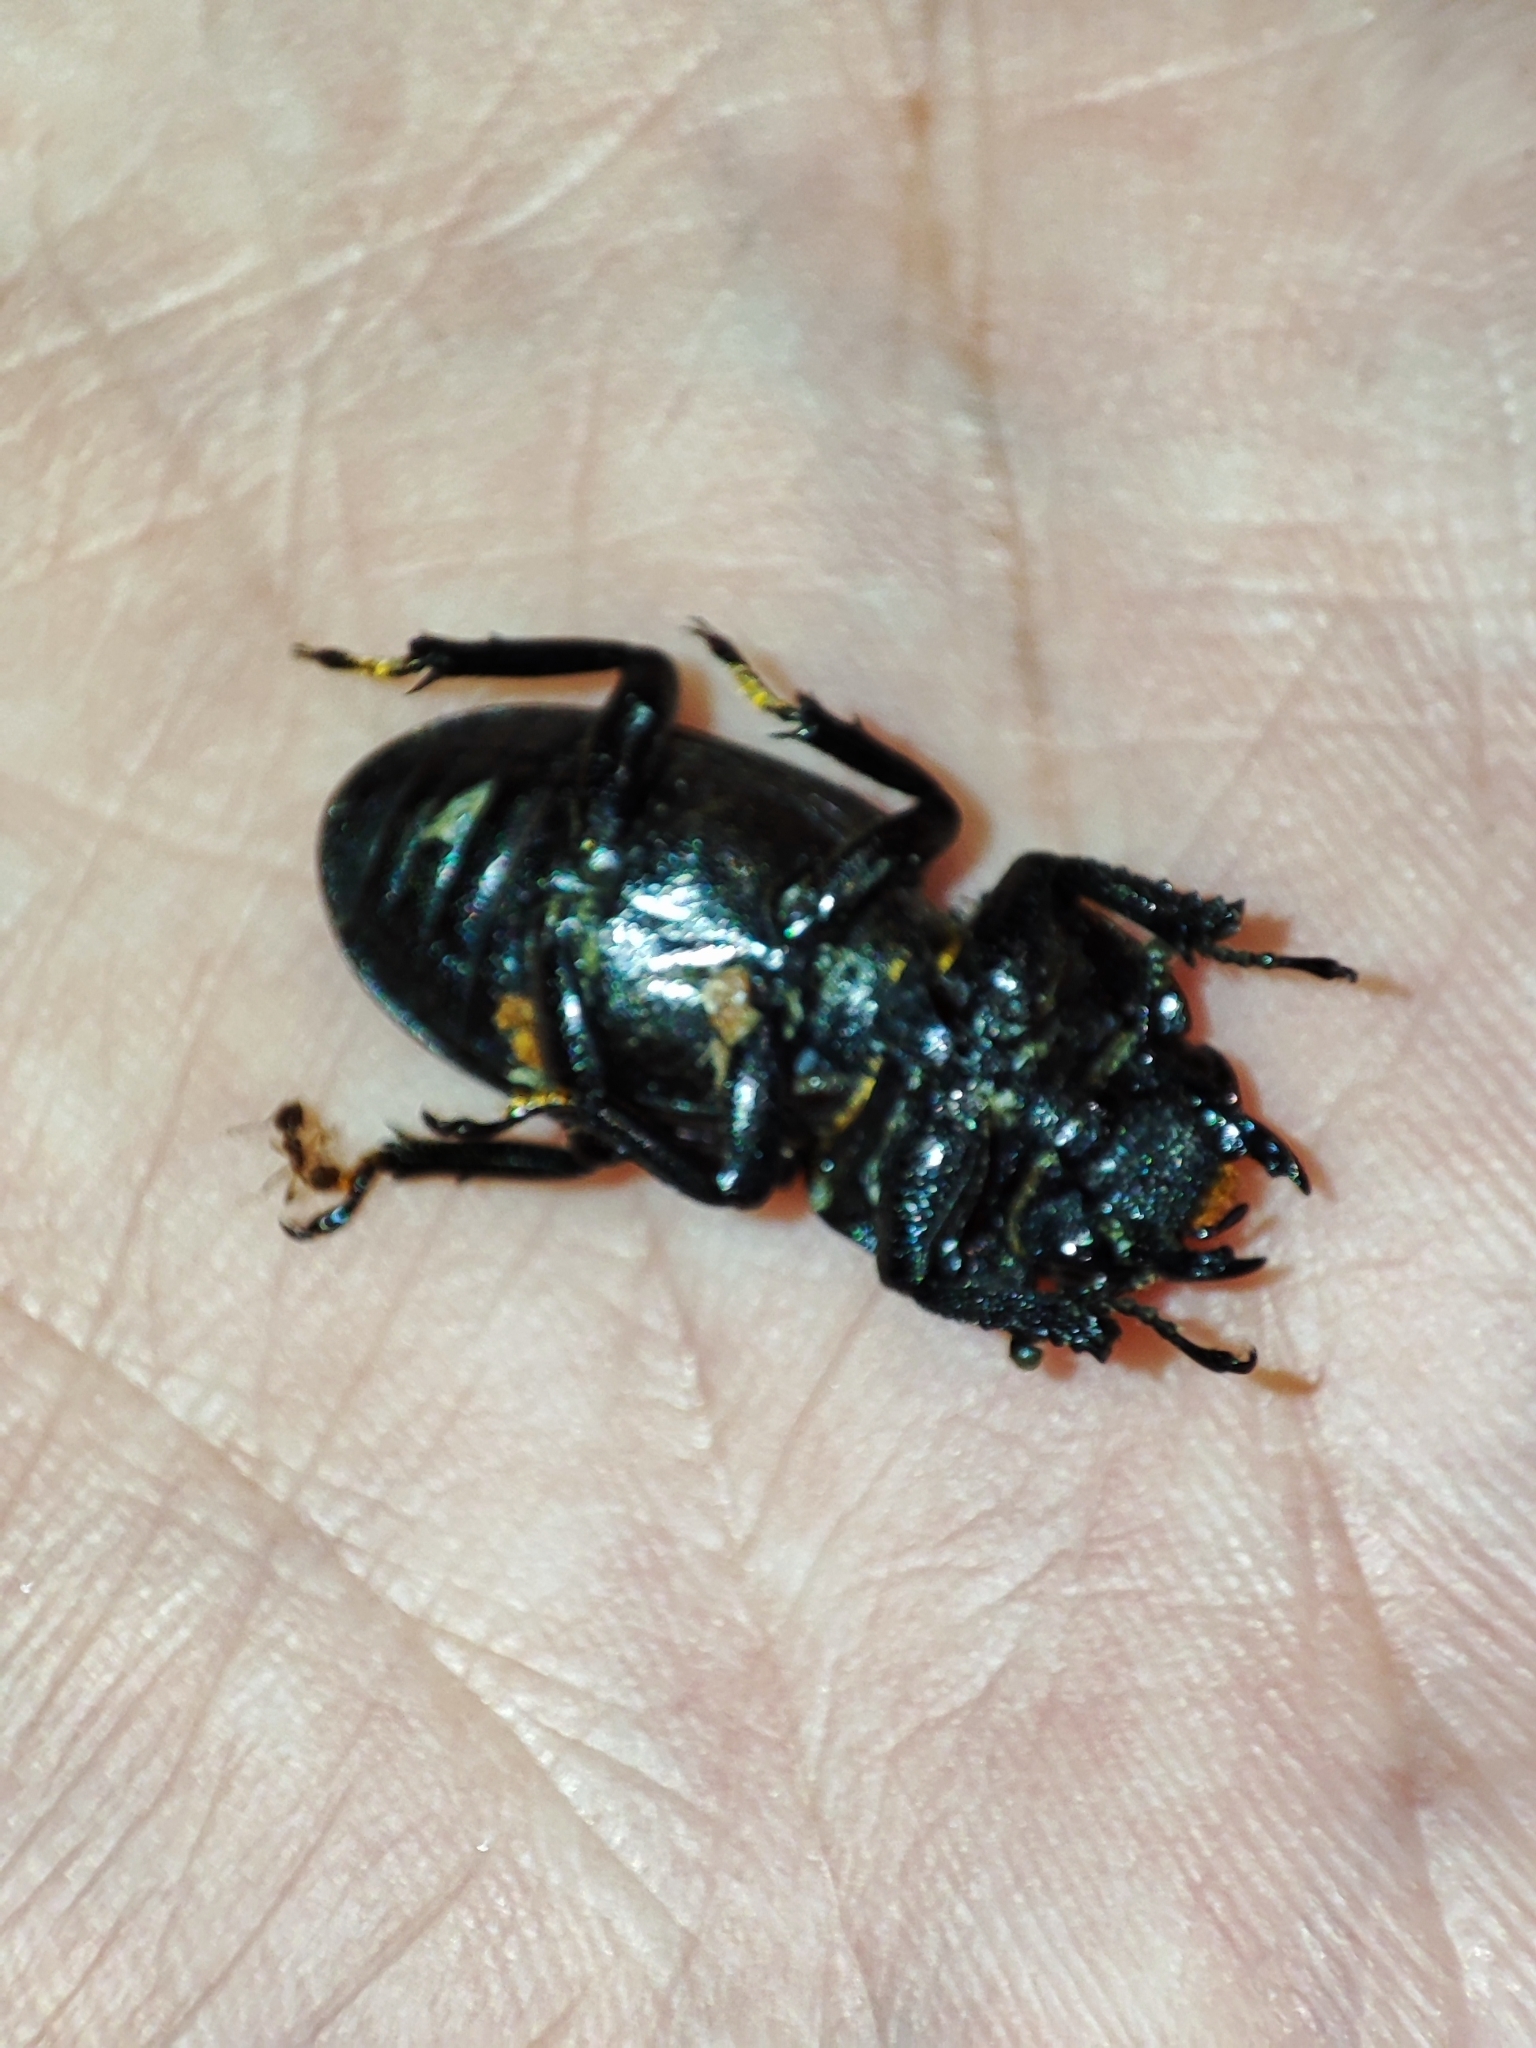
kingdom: Animalia
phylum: Arthropoda
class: Insecta
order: Coleoptera
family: Lucanidae
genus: Dorcus
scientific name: Dorcus parallelipipedus
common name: Lesser stag beetle
